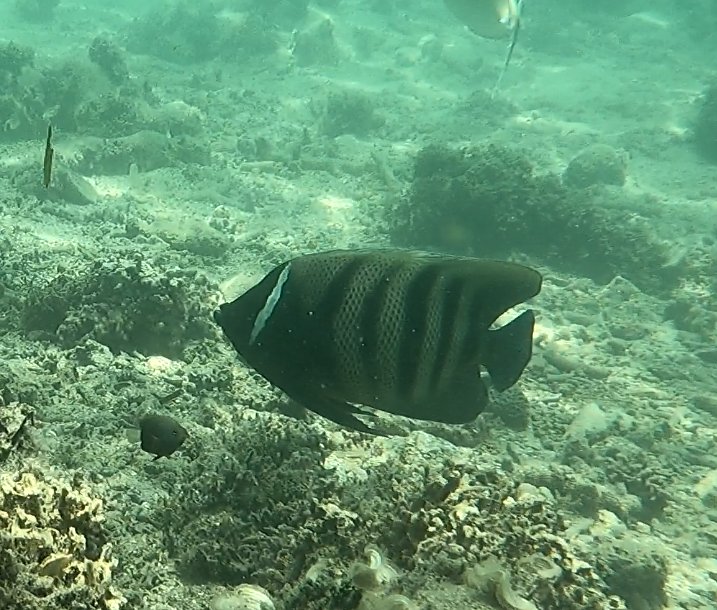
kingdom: Animalia
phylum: Chordata
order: Perciformes
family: Pomacanthidae
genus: Pomacanthus
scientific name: Pomacanthus sexstriatus
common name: Six-banded angelfish
